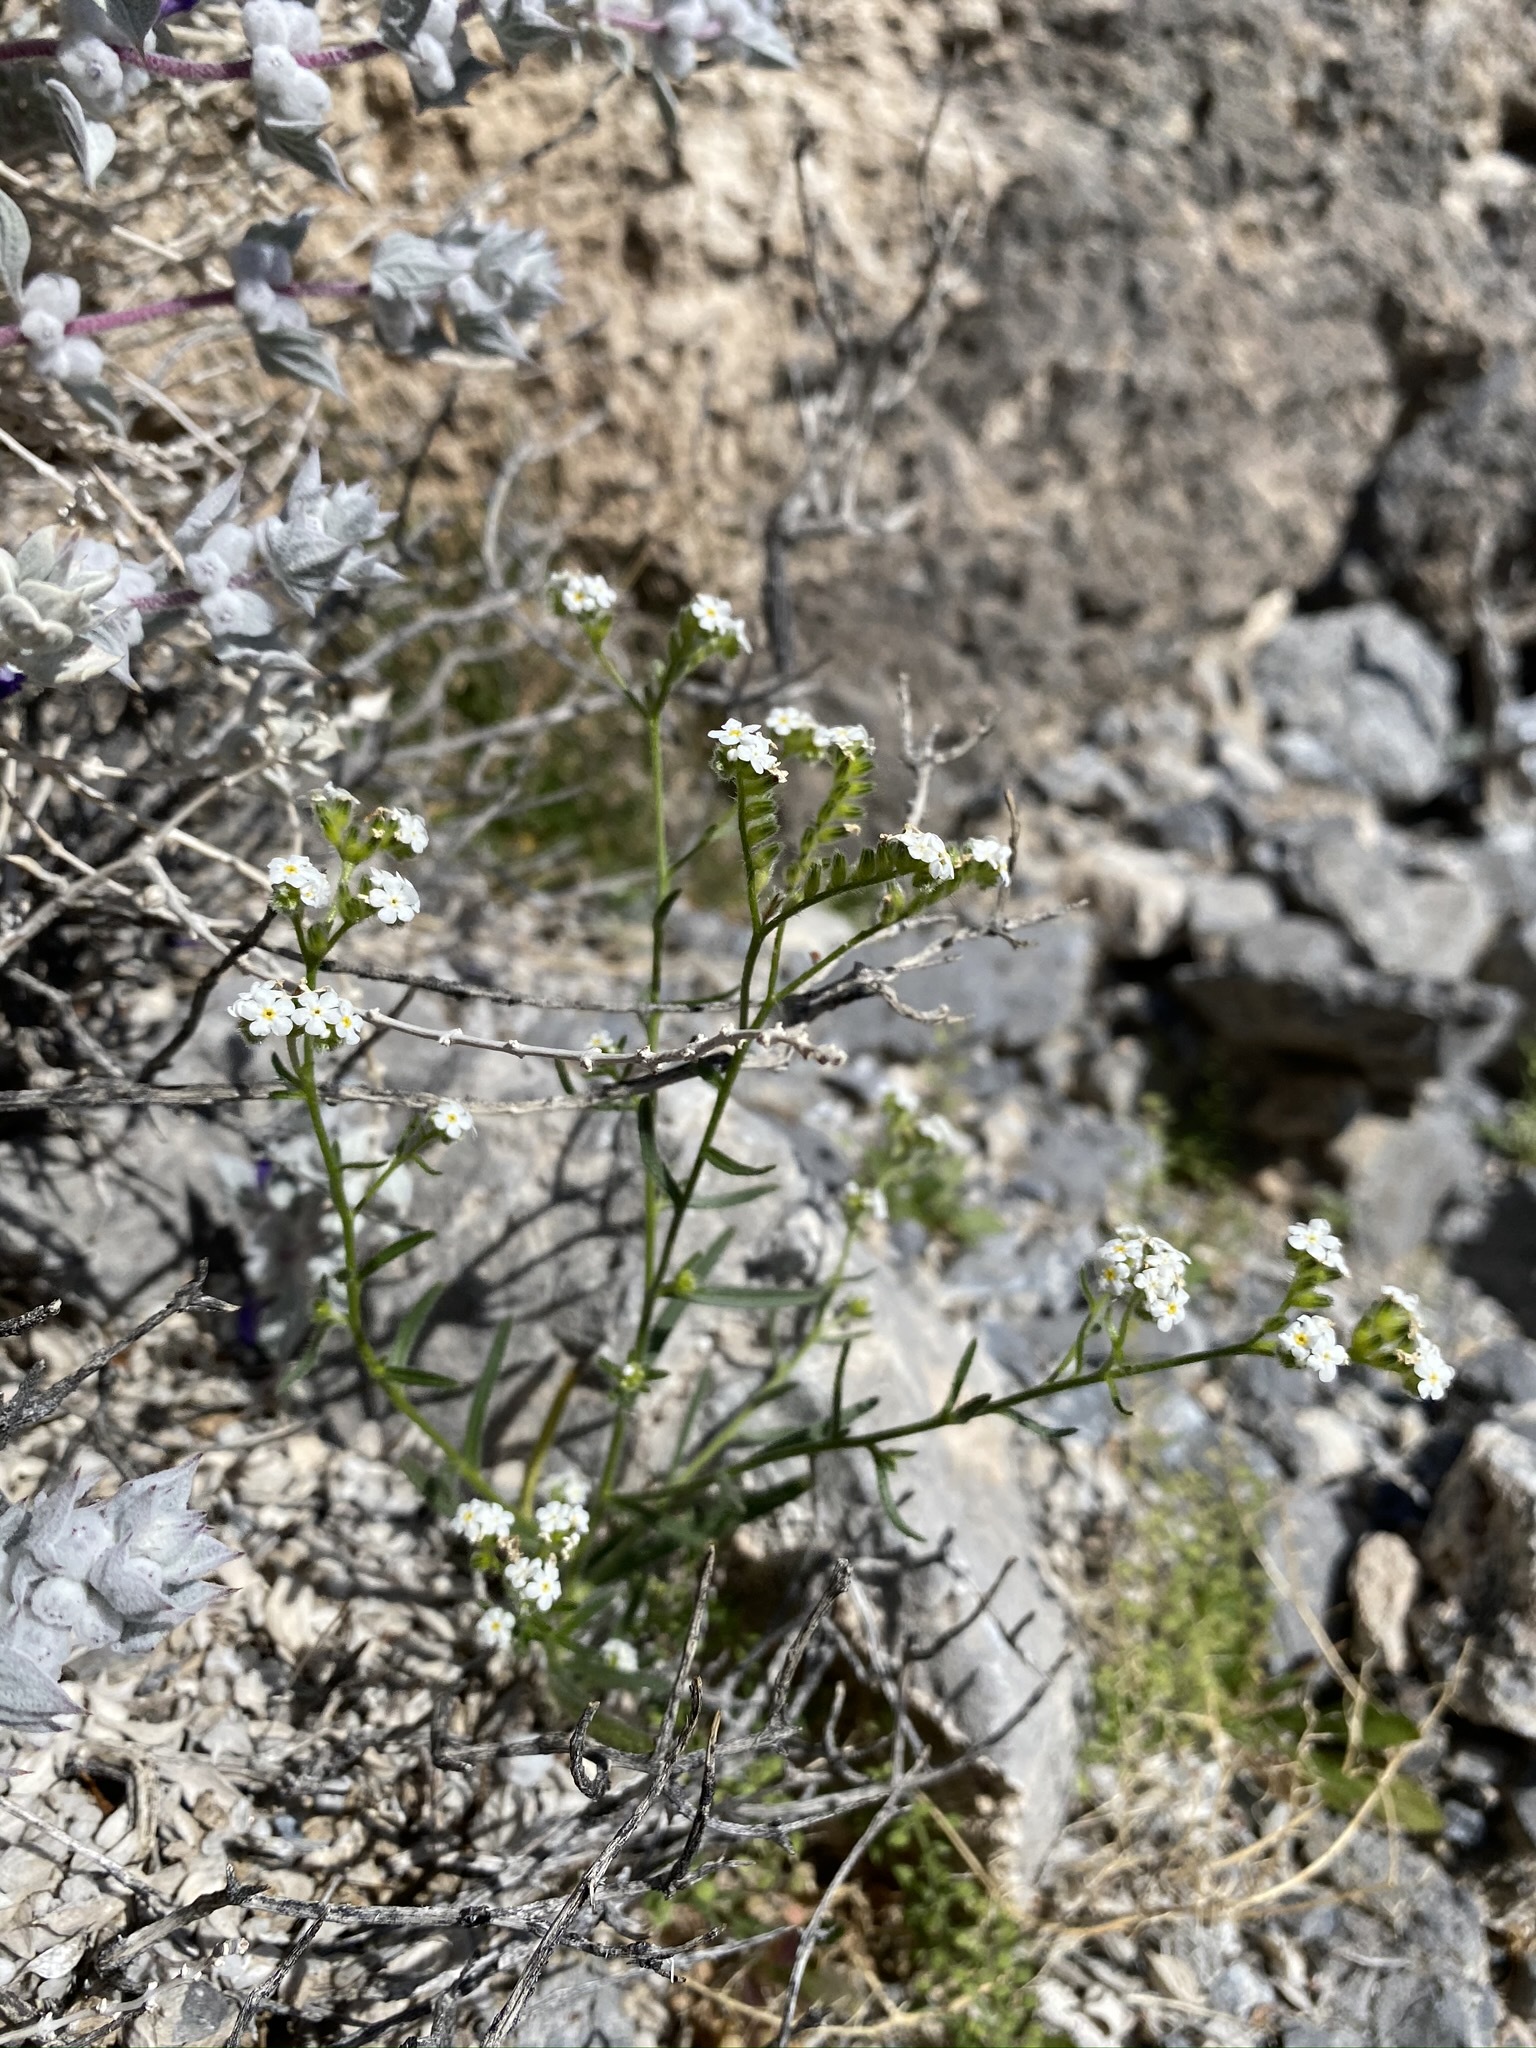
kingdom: Plantae
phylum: Tracheophyta
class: Magnoliopsida
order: Boraginales
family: Boraginaceae
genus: Cryptantha
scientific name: Cryptantha utahensis
